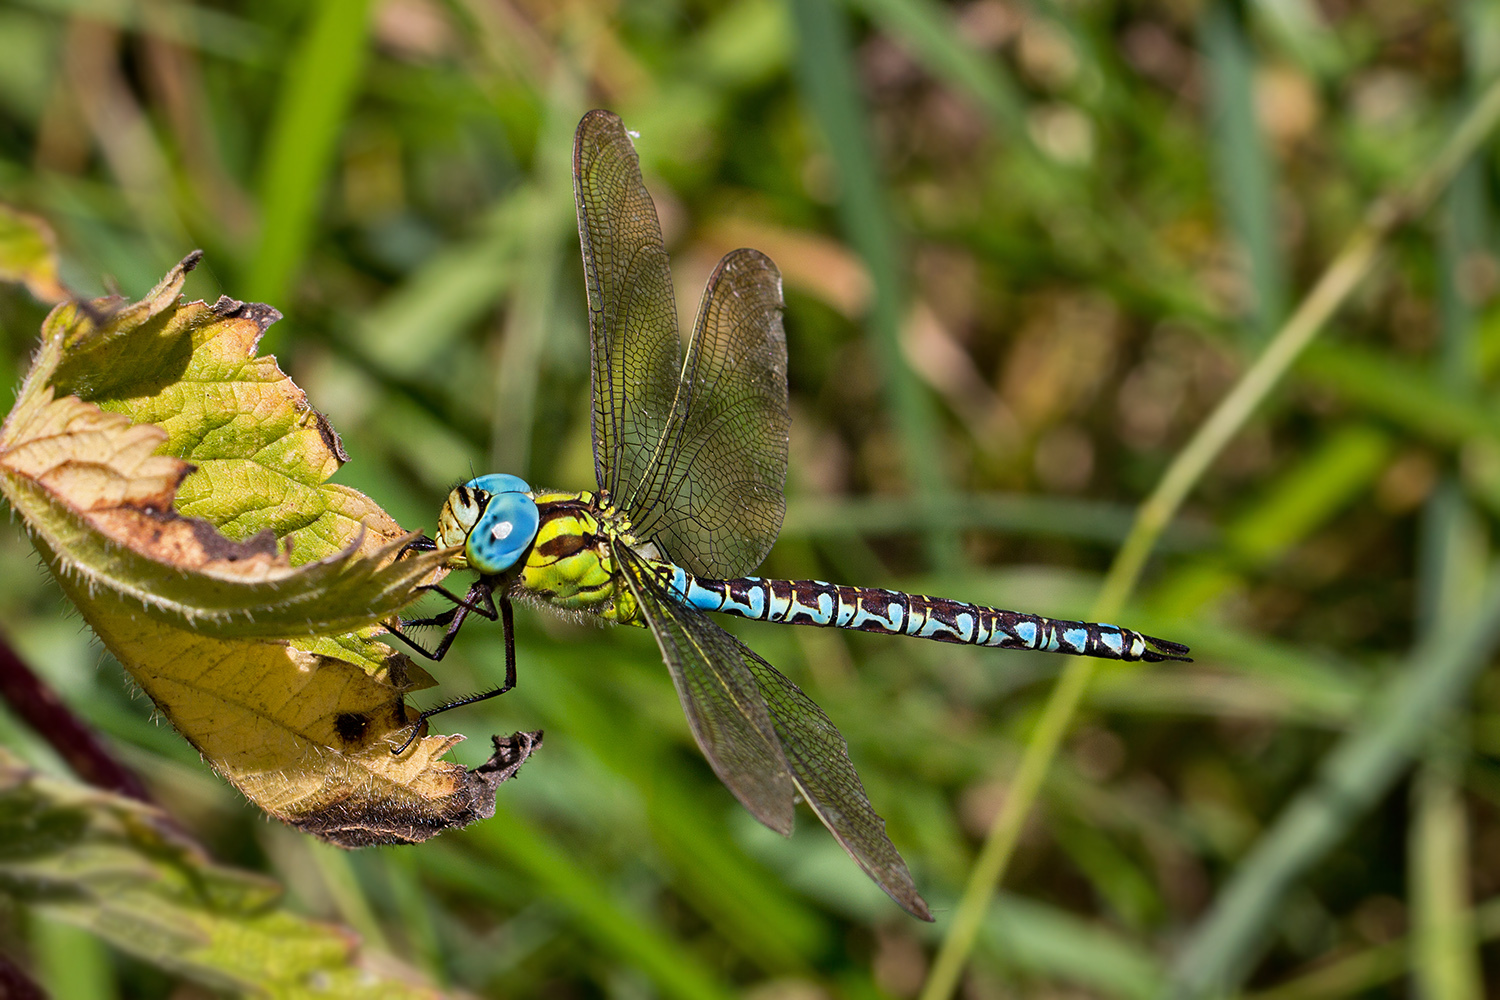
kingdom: Animalia
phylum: Arthropoda
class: Insecta
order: Odonata
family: Aeshnidae
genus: Aeshna
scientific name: Aeshna viridis
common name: Green hawker
